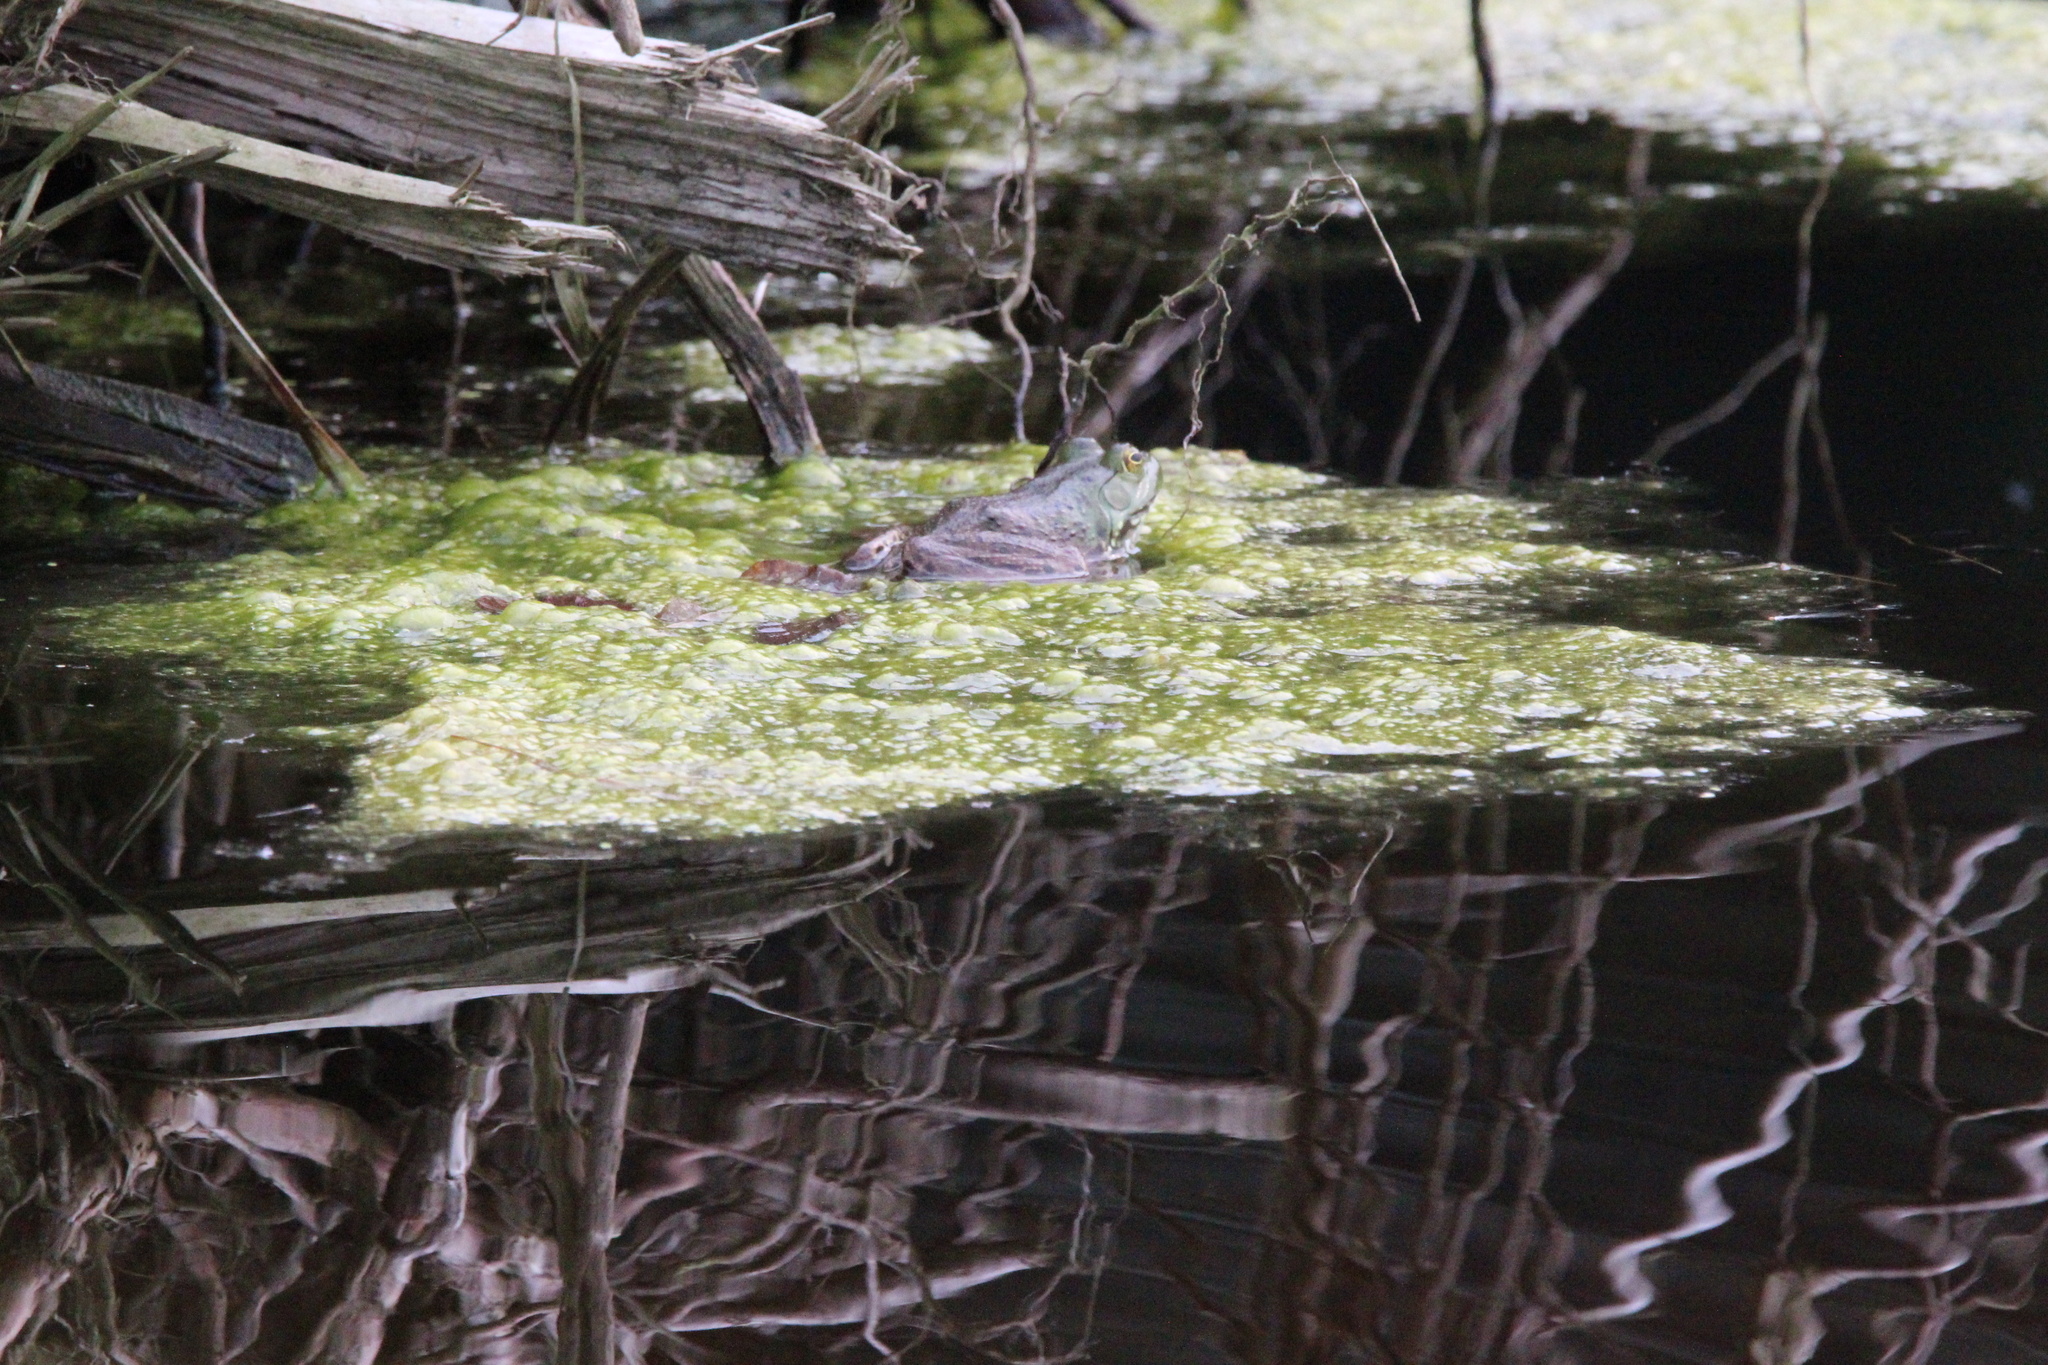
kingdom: Animalia
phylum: Chordata
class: Amphibia
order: Anura
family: Ranidae
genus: Lithobates
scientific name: Lithobates catesbeianus
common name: American bullfrog
